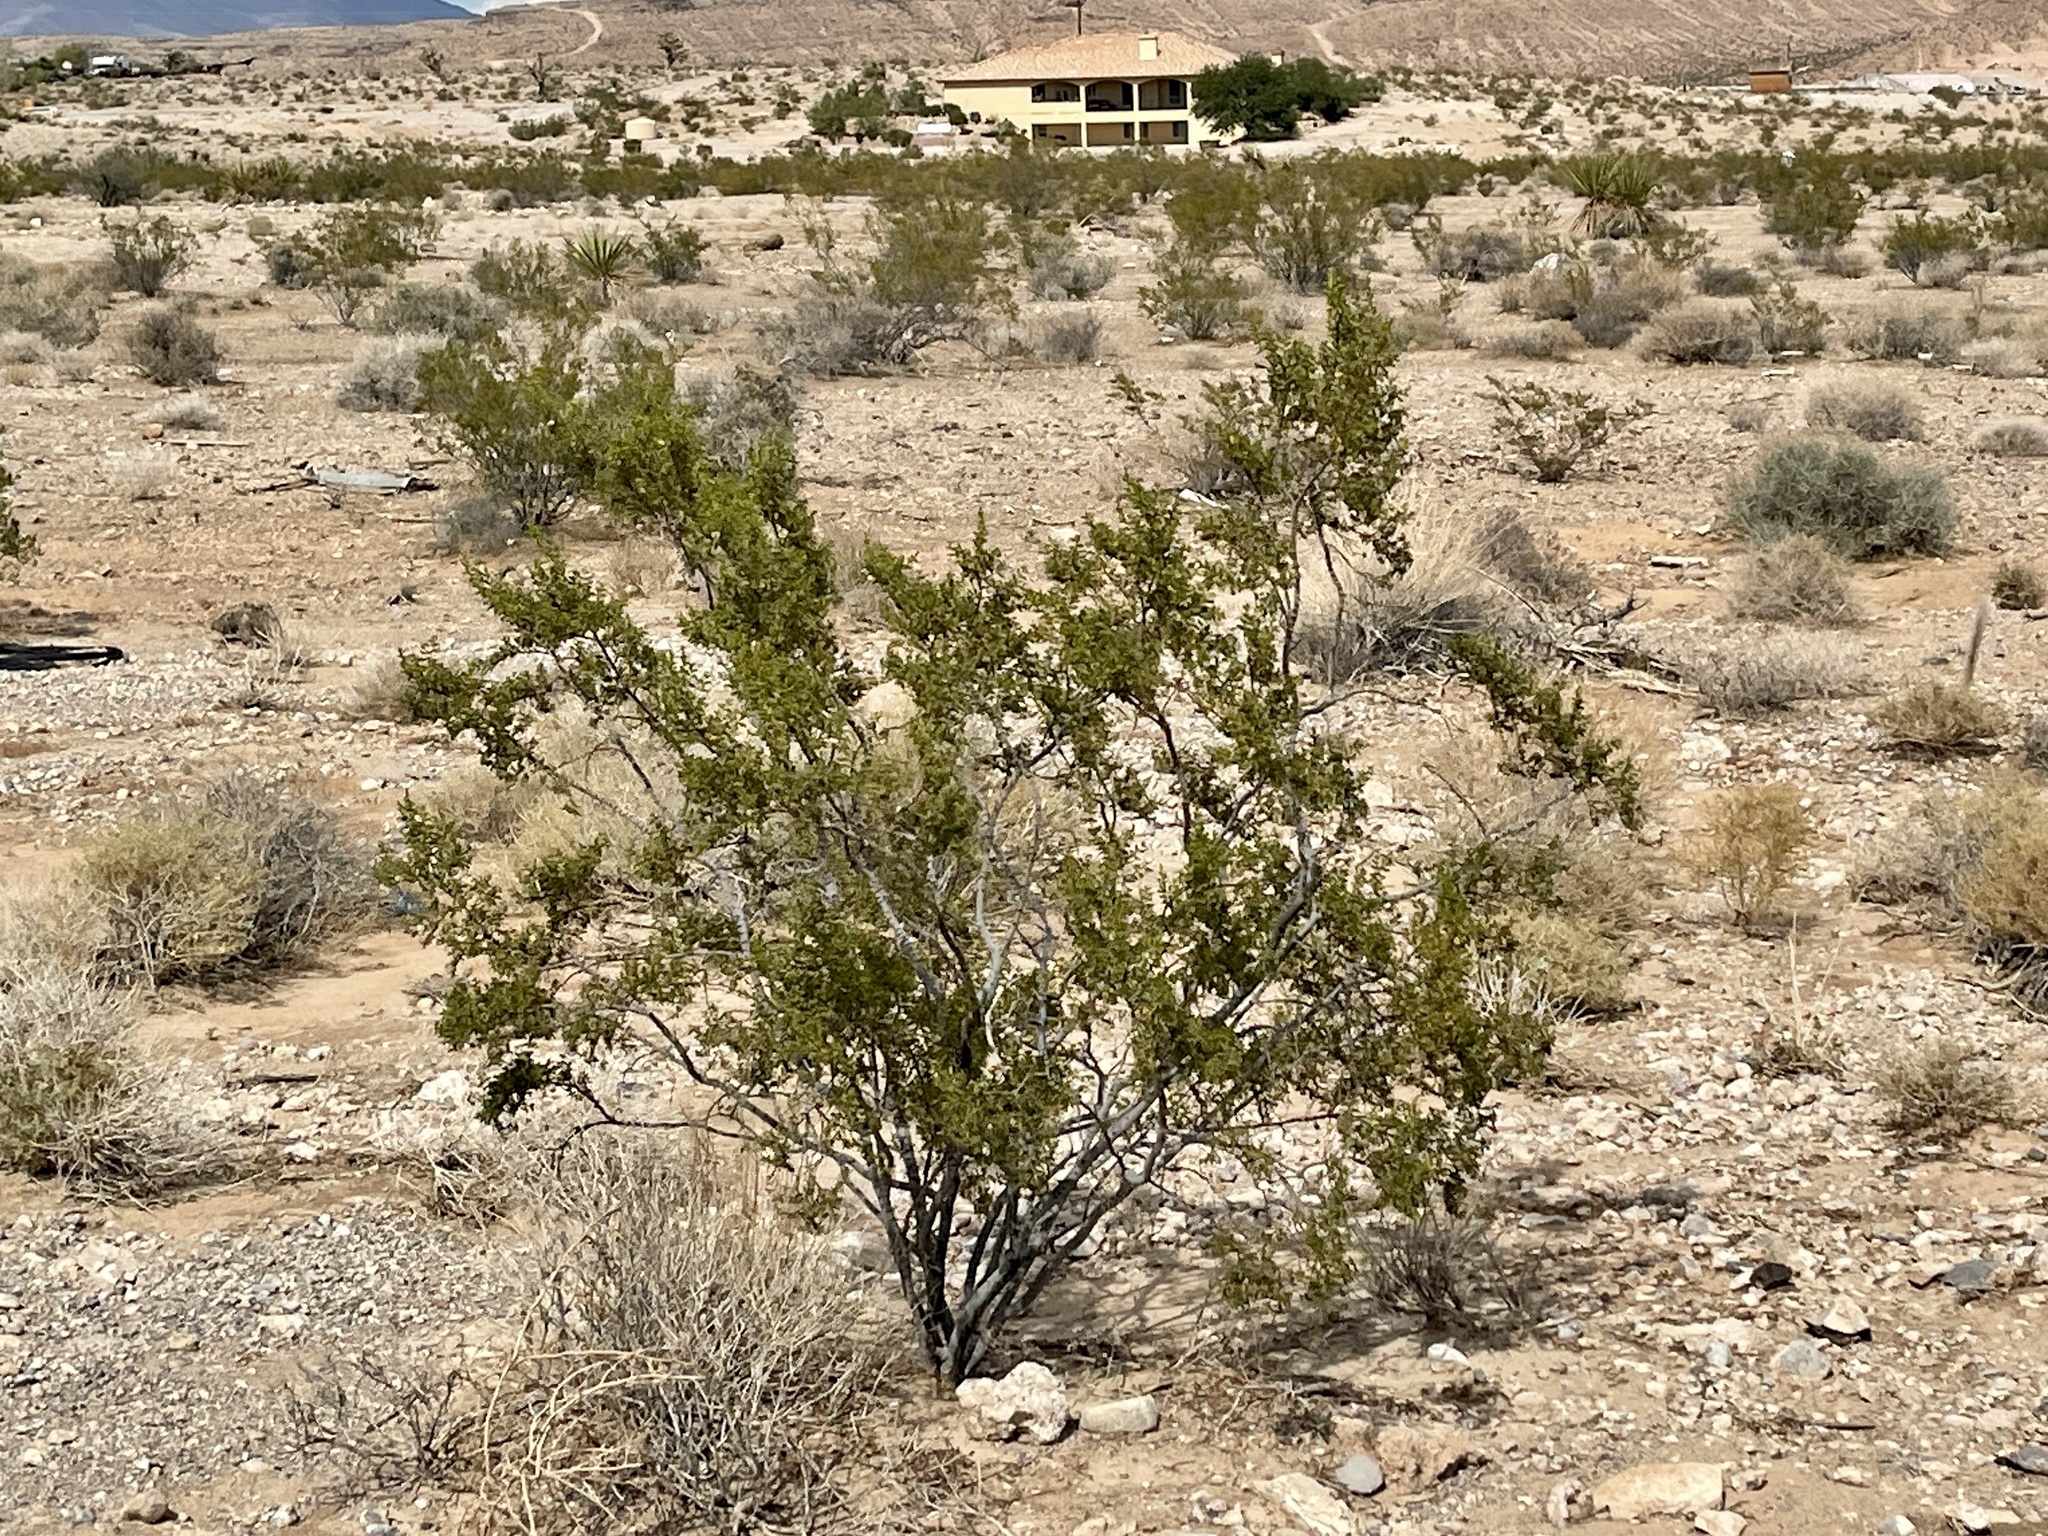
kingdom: Plantae
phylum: Tracheophyta
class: Magnoliopsida
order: Zygophyllales
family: Zygophyllaceae
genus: Larrea
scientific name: Larrea tridentata
